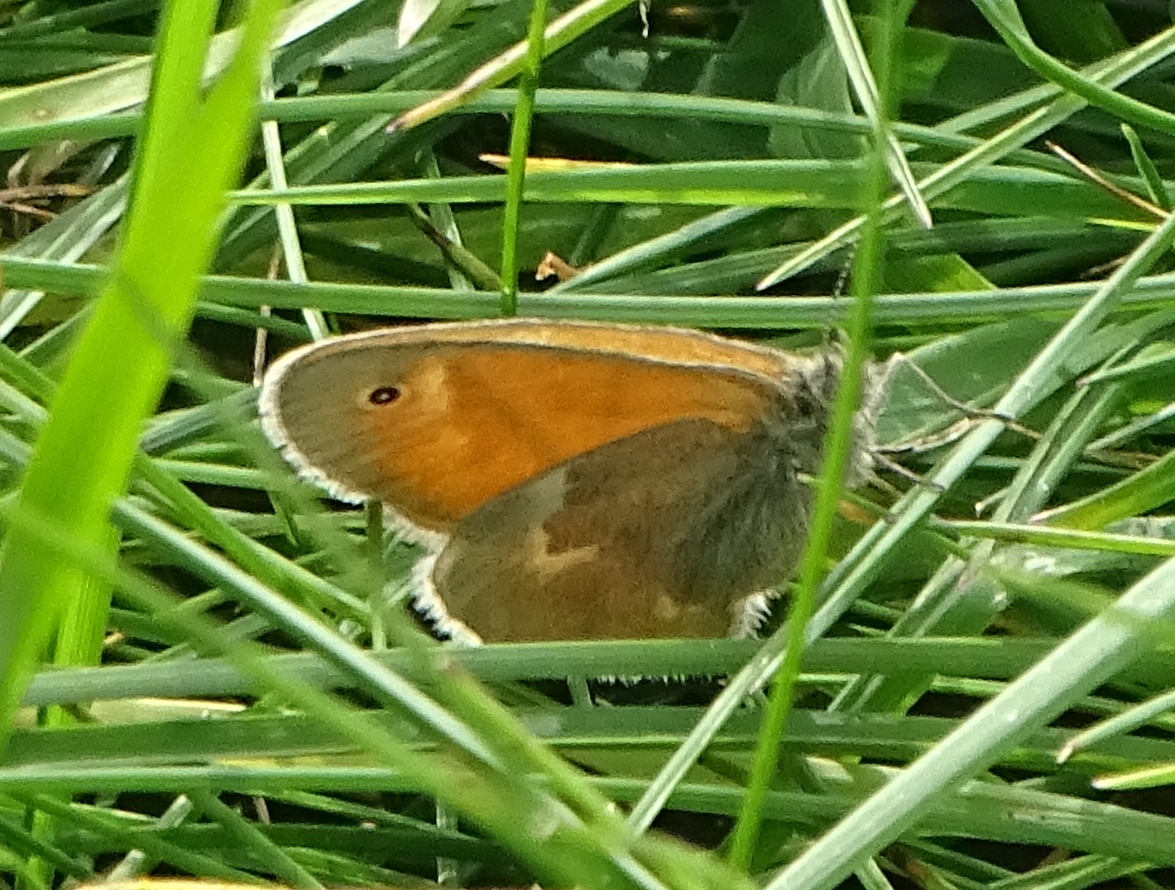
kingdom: Animalia
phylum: Arthropoda
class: Insecta
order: Lepidoptera
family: Nymphalidae
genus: Coenonympha
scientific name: Coenonympha california
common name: Common ringlet
